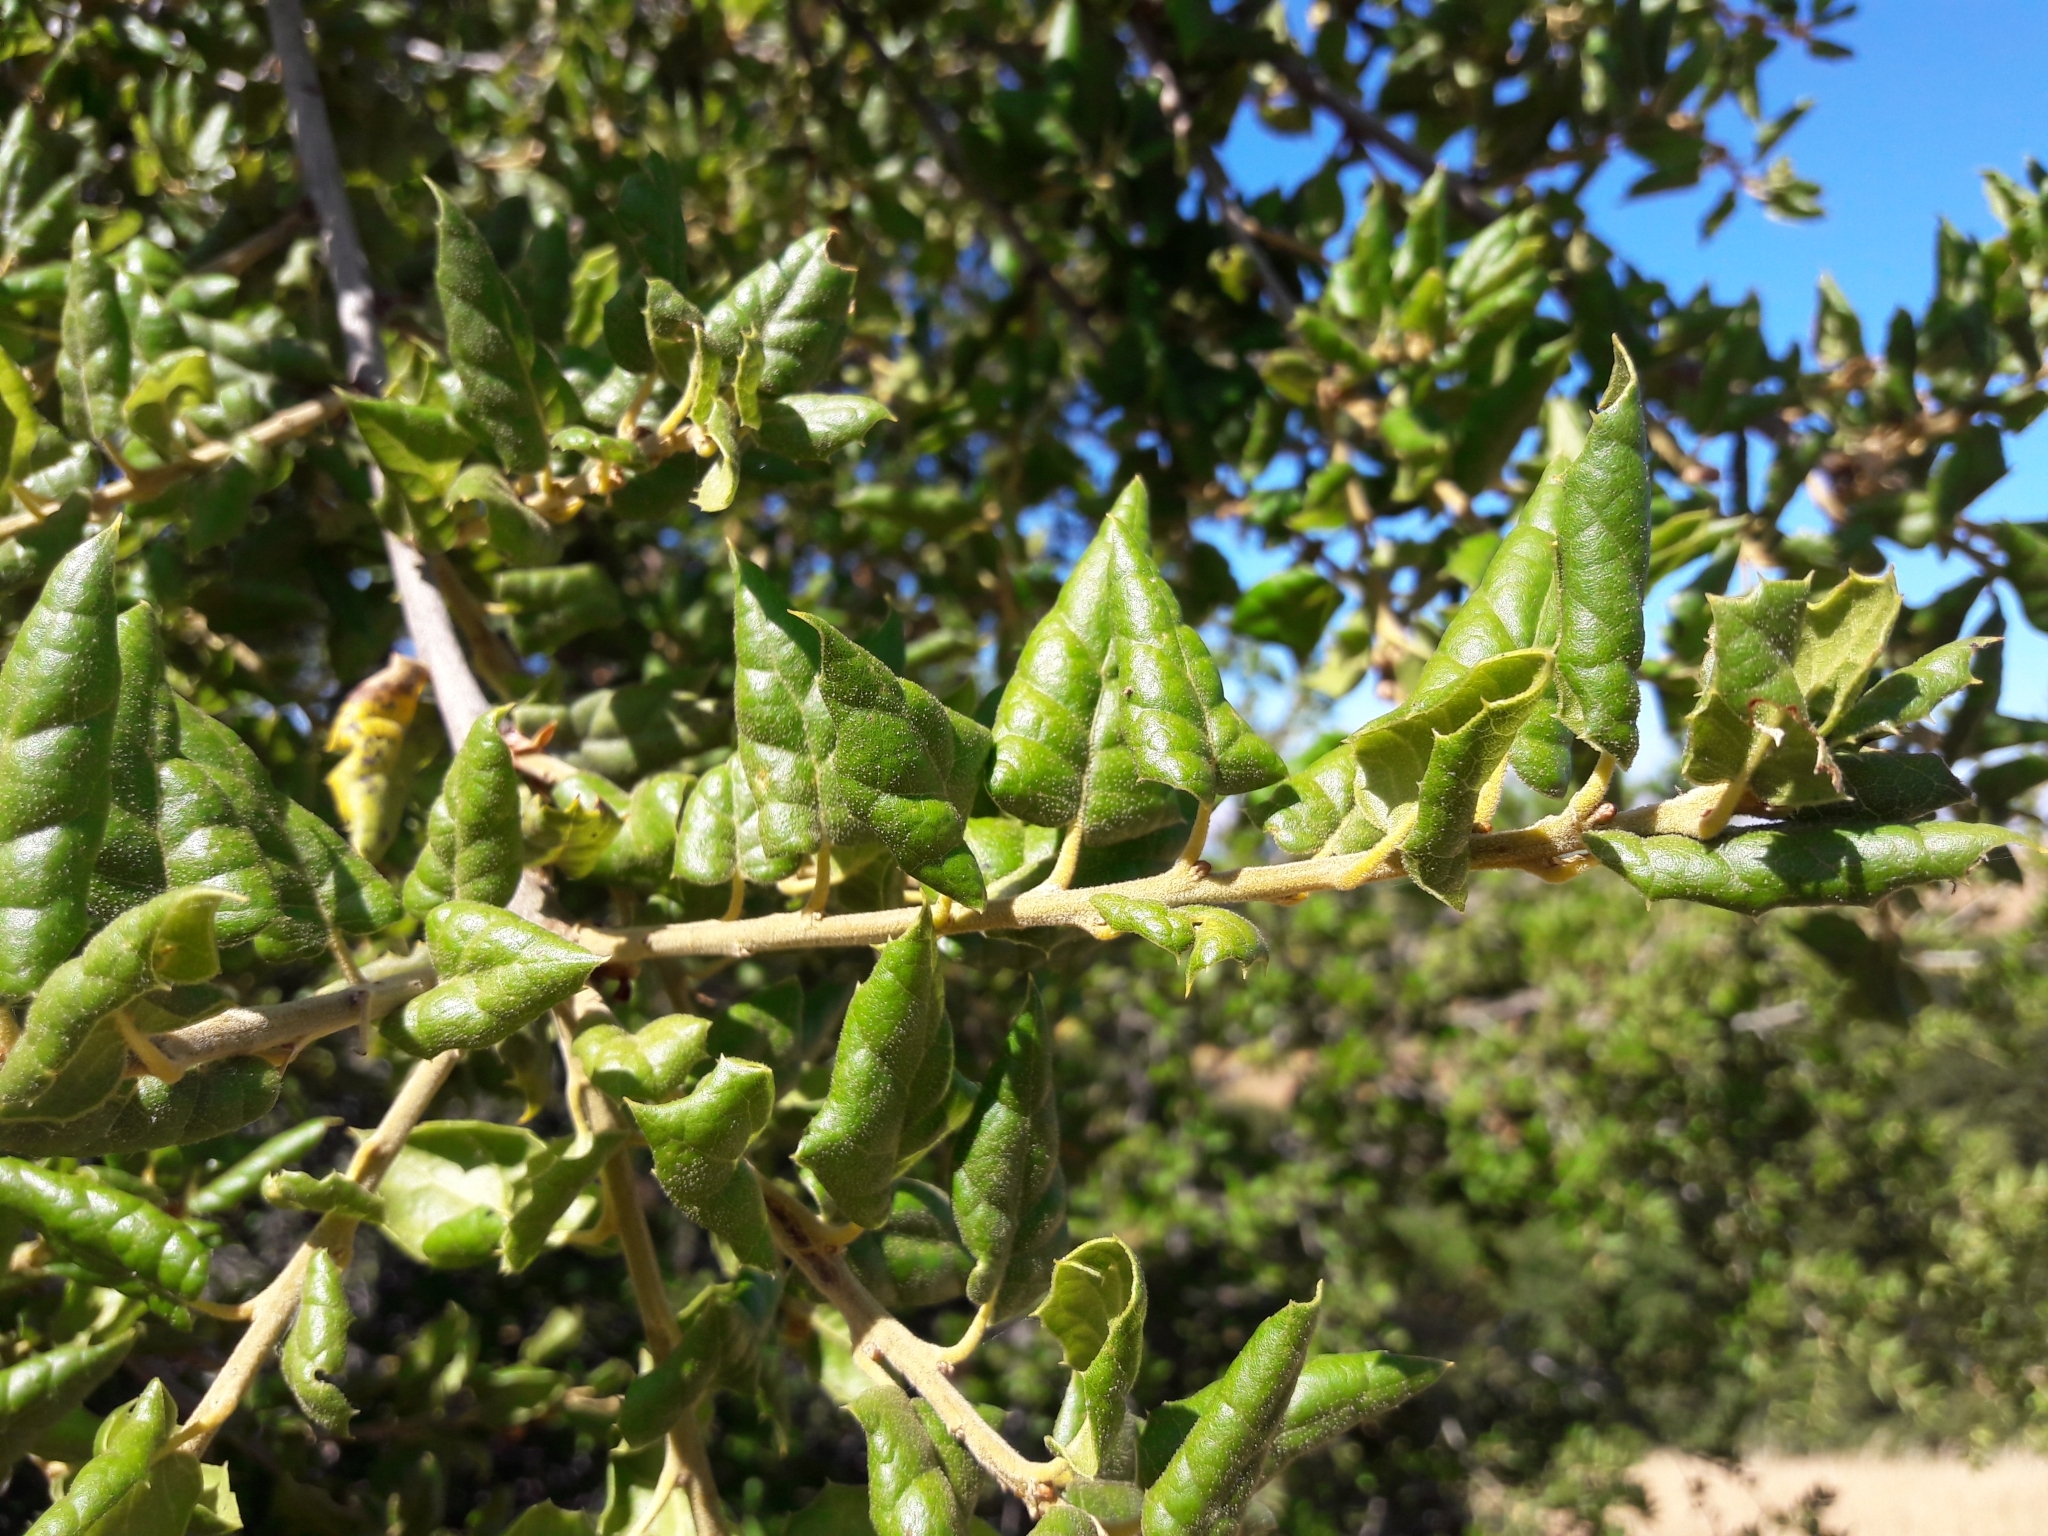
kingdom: Plantae
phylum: Tracheophyta
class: Magnoliopsida
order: Fagales
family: Fagaceae
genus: Quercus
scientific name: Quercus agrifolia
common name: California live oak
